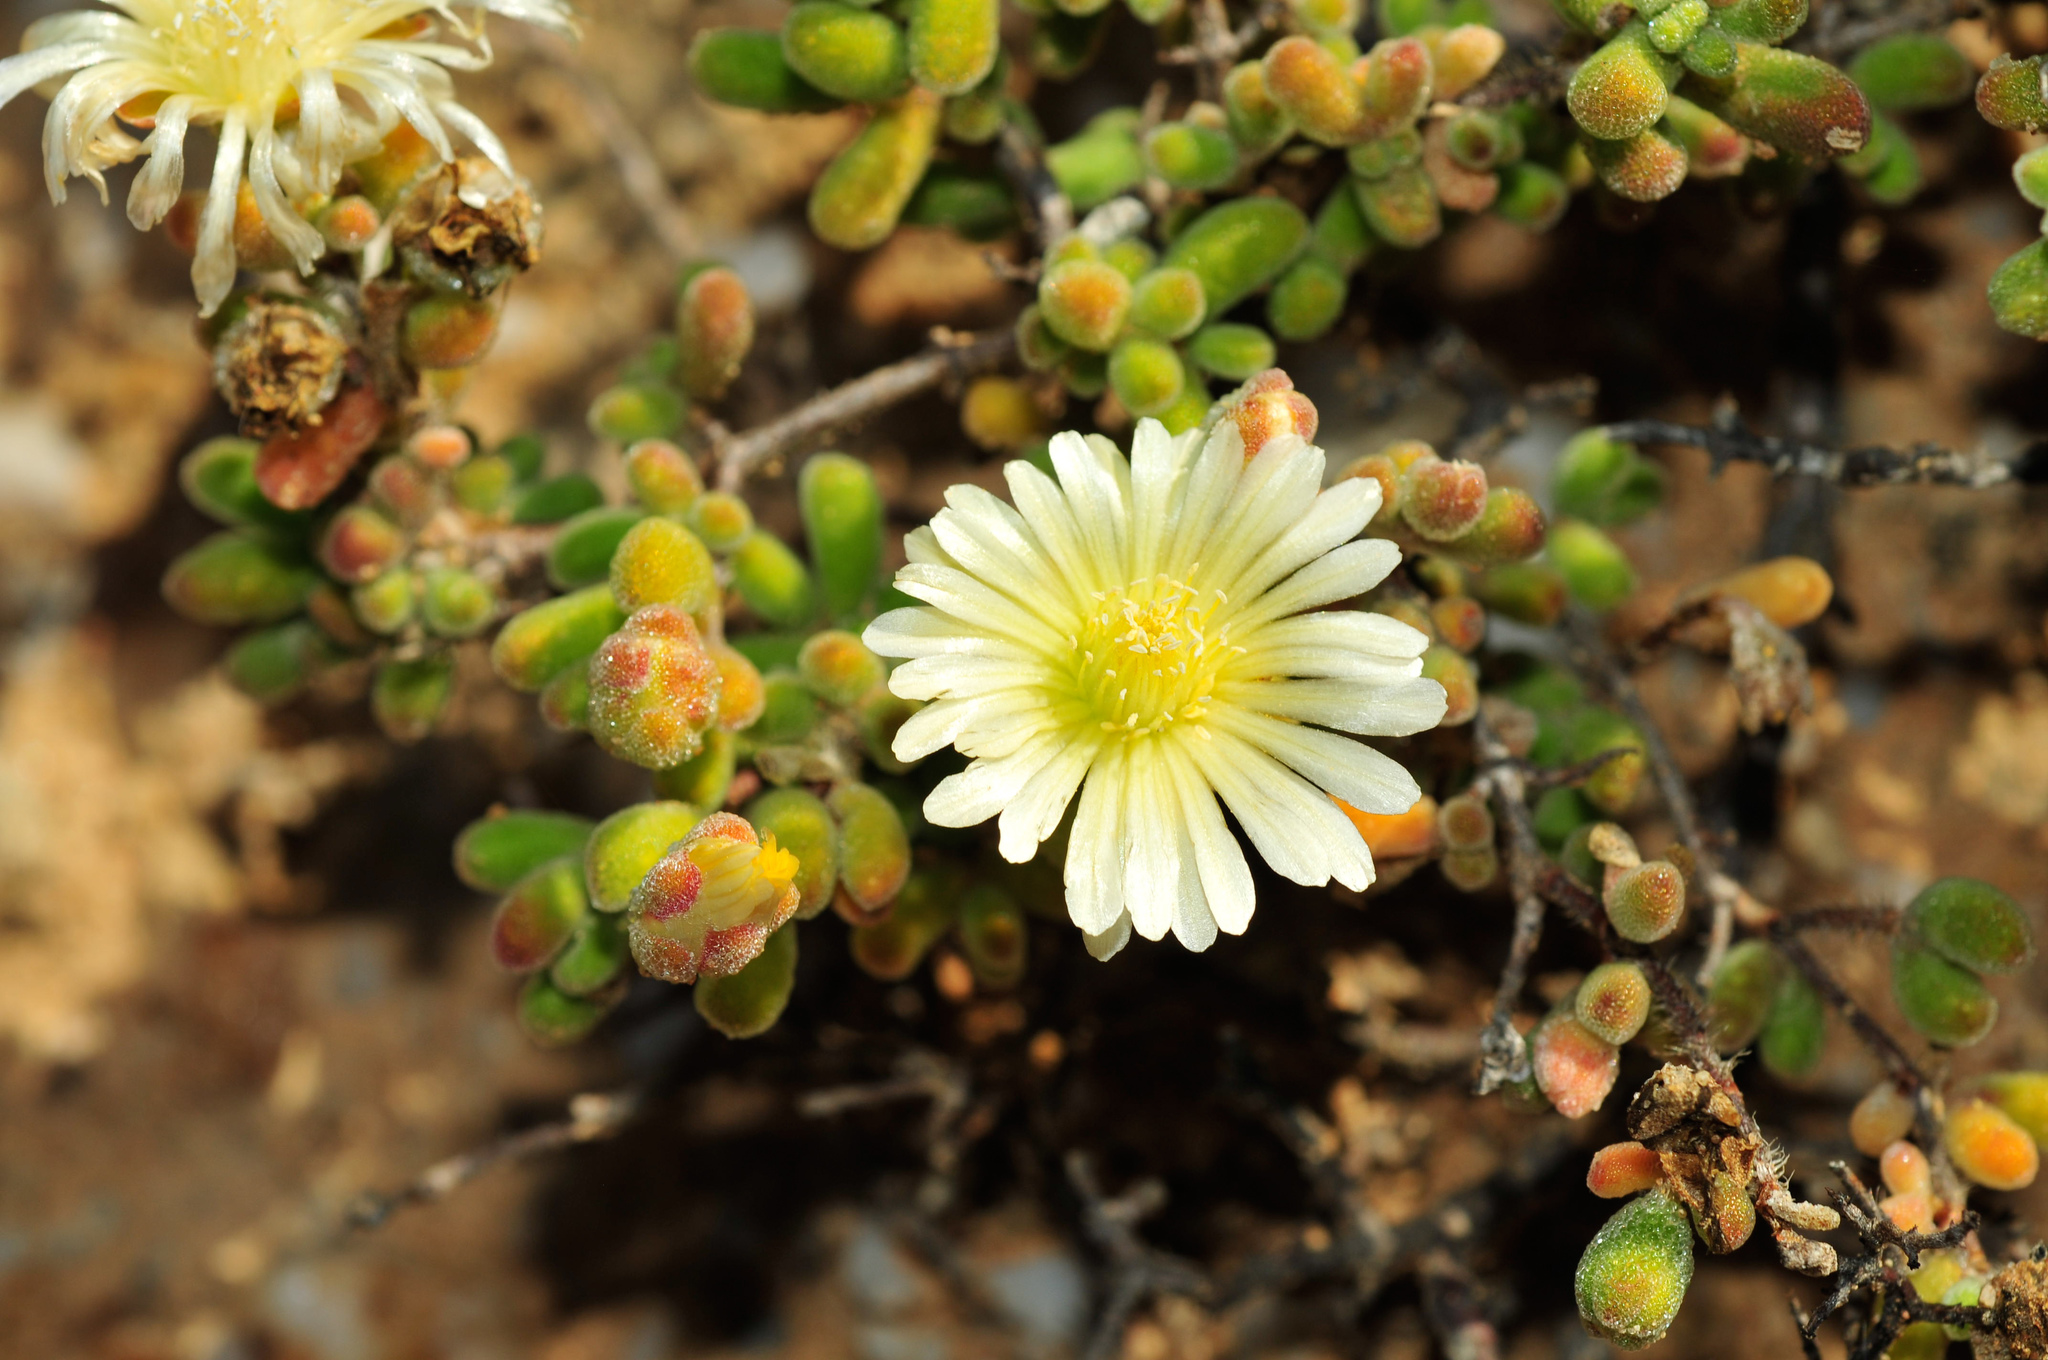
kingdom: Plantae
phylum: Tracheophyta
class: Magnoliopsida
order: Caryophyllales
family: Aizoaceae
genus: Drosanthemum
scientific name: Drosanthemum schoenlandianum
